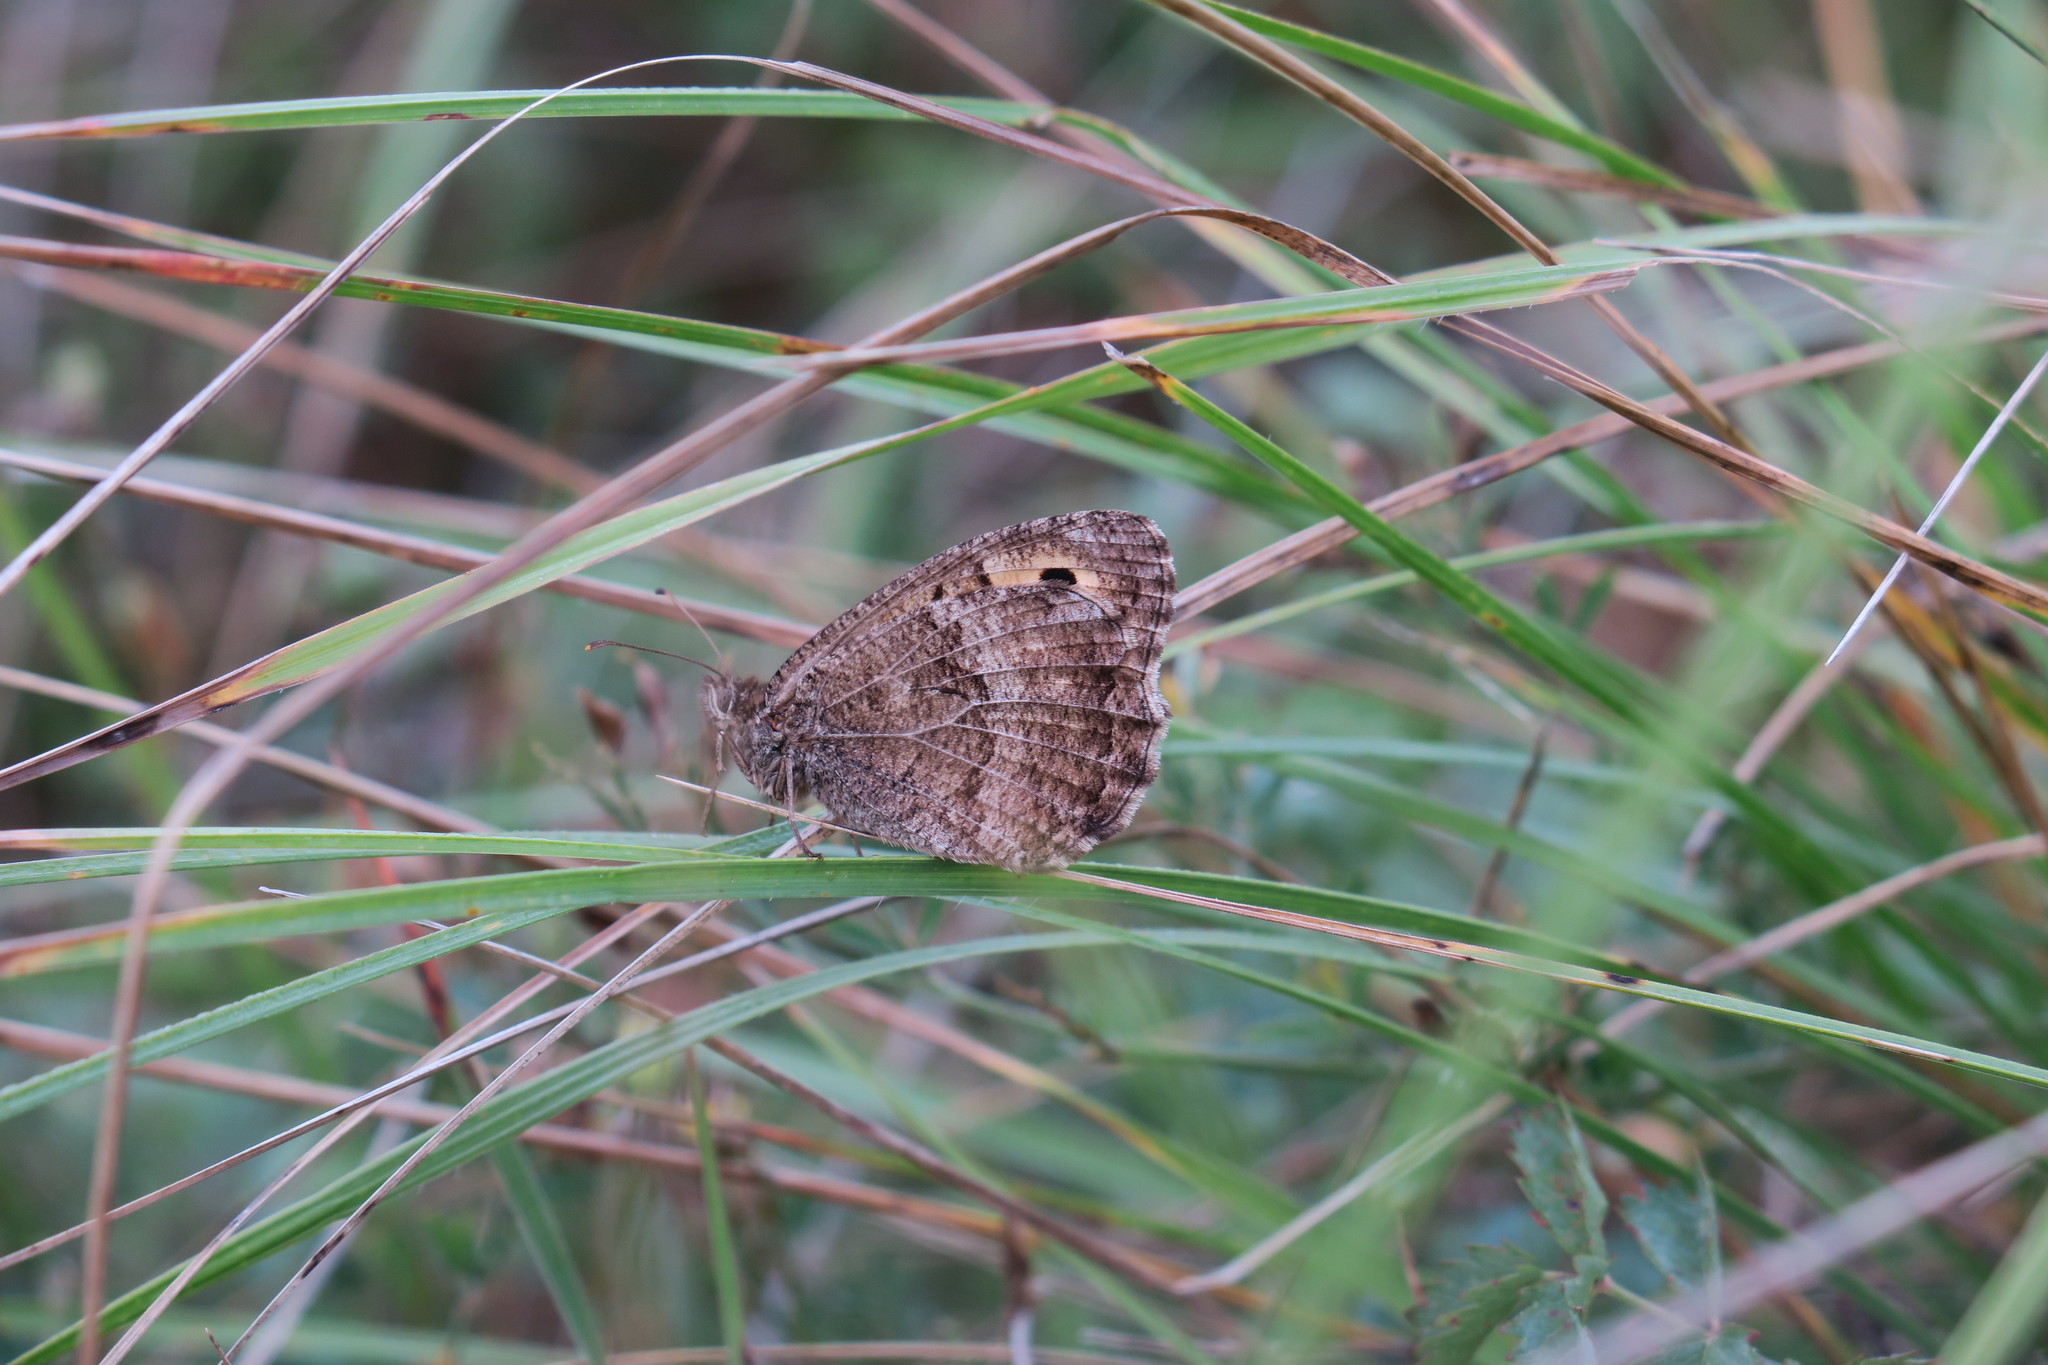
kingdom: Animalia
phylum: Arthropoda
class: Insecta
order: Lepidoptera
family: Nymphalidae
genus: Arethusana
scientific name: Arethusana arethusa
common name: False grayling
